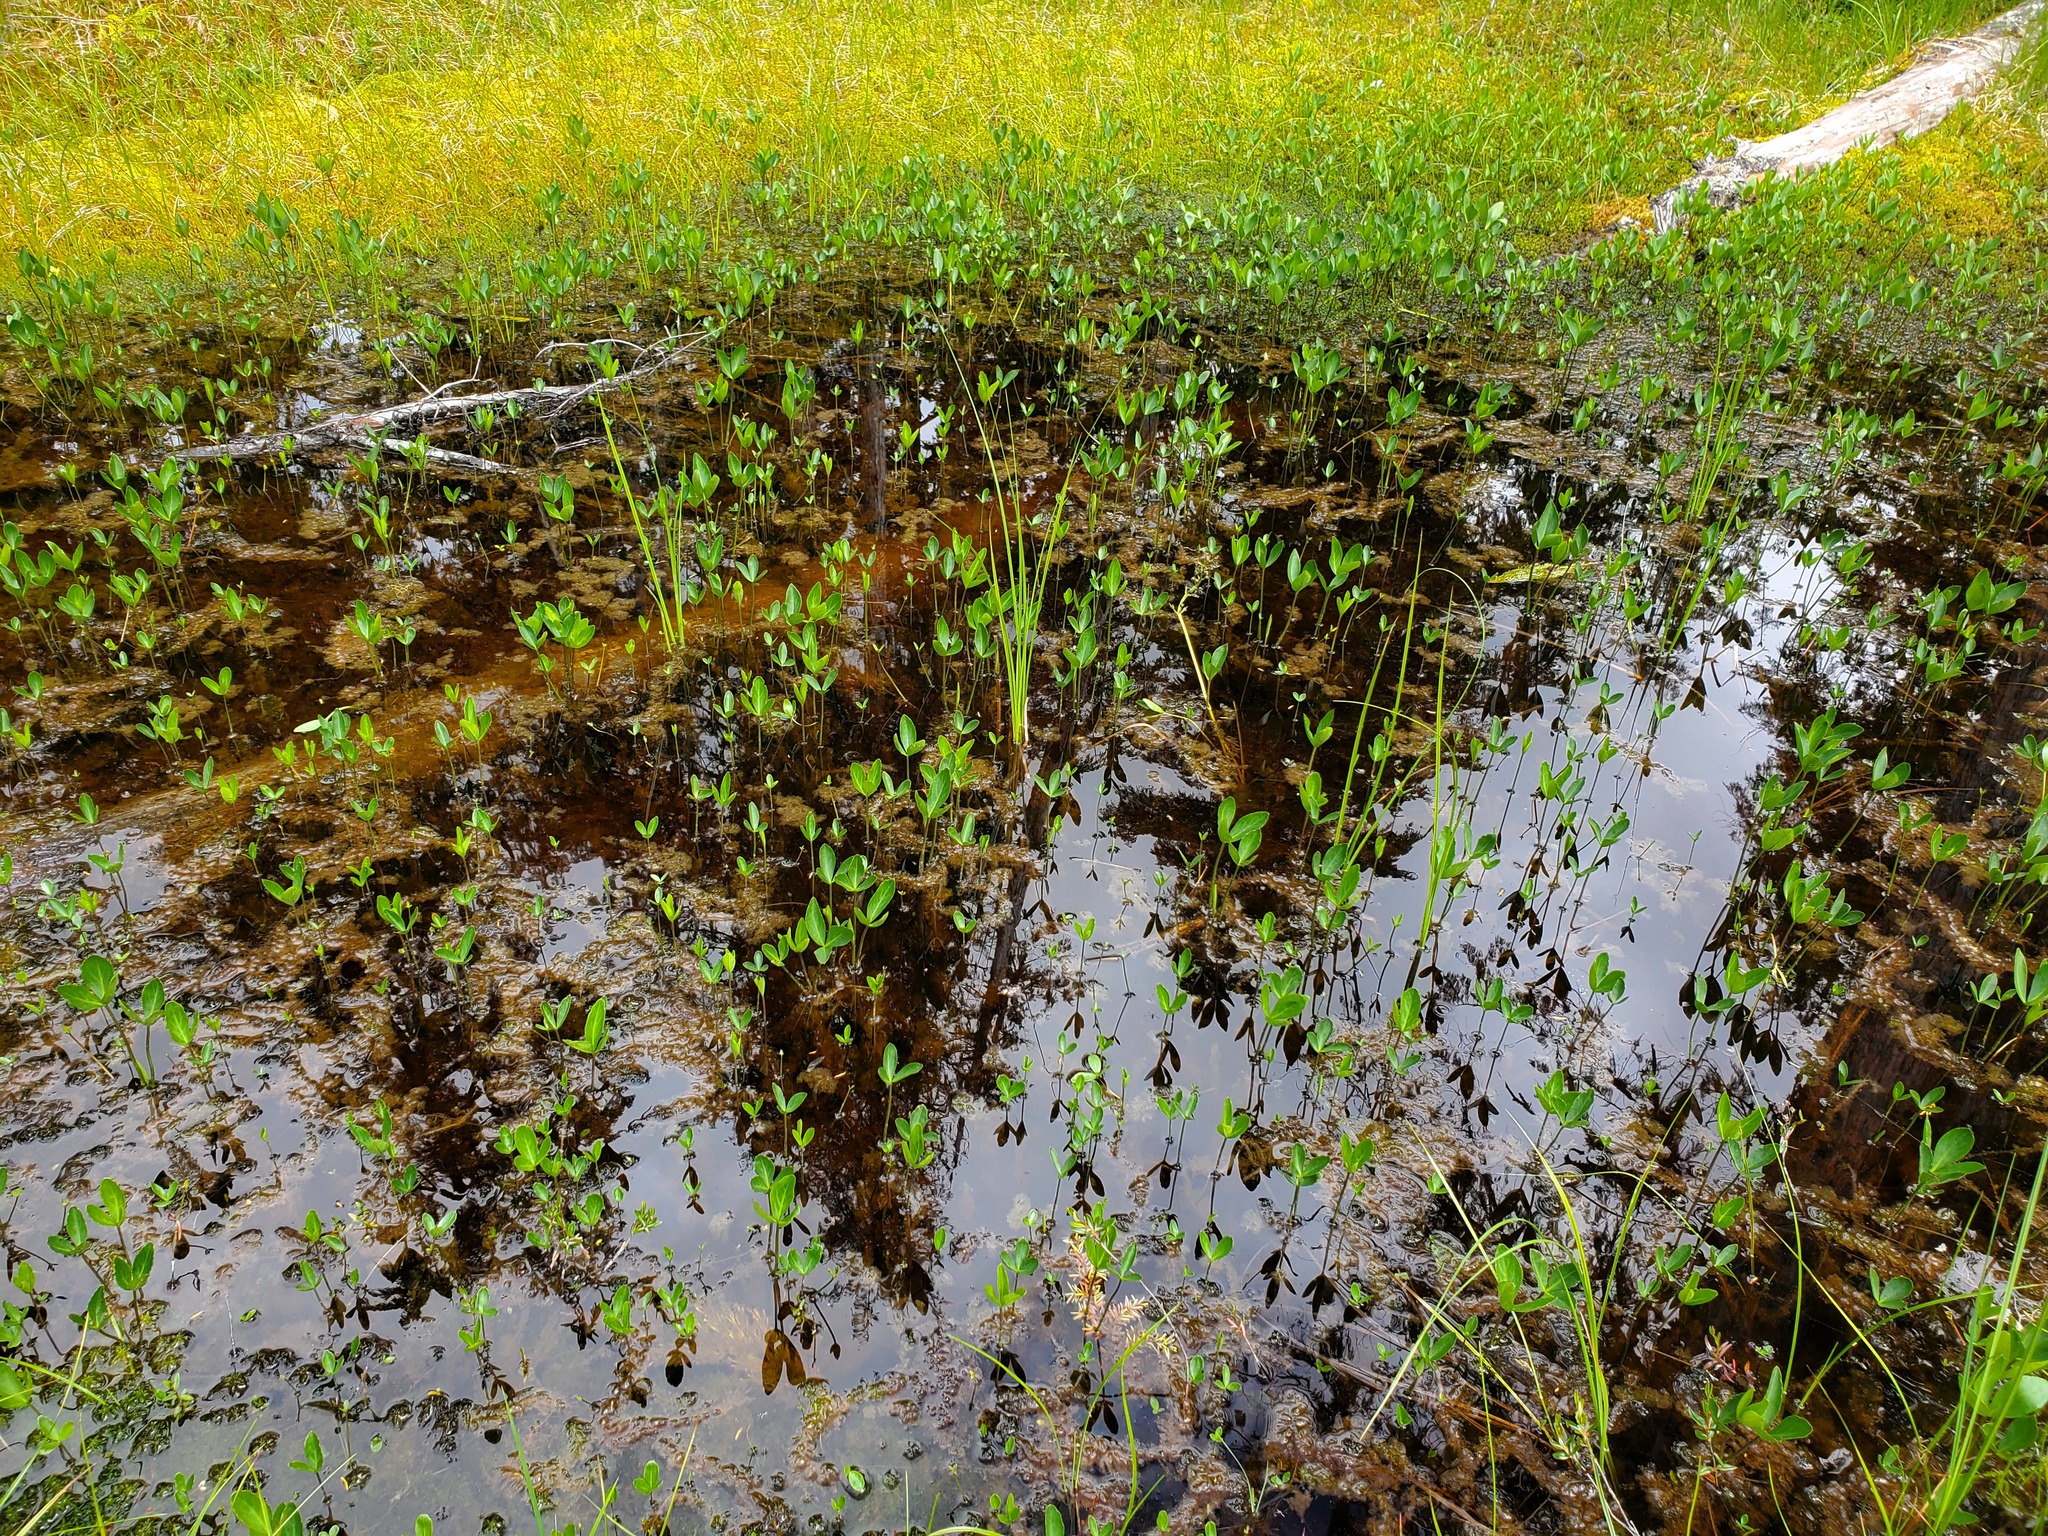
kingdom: Plantae
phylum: Tracheophyta
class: Magnoliopsida
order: Asterales
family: Menyanthaceae
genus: Menyanthes
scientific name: Menyanthes trifoliata
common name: Bogbean
